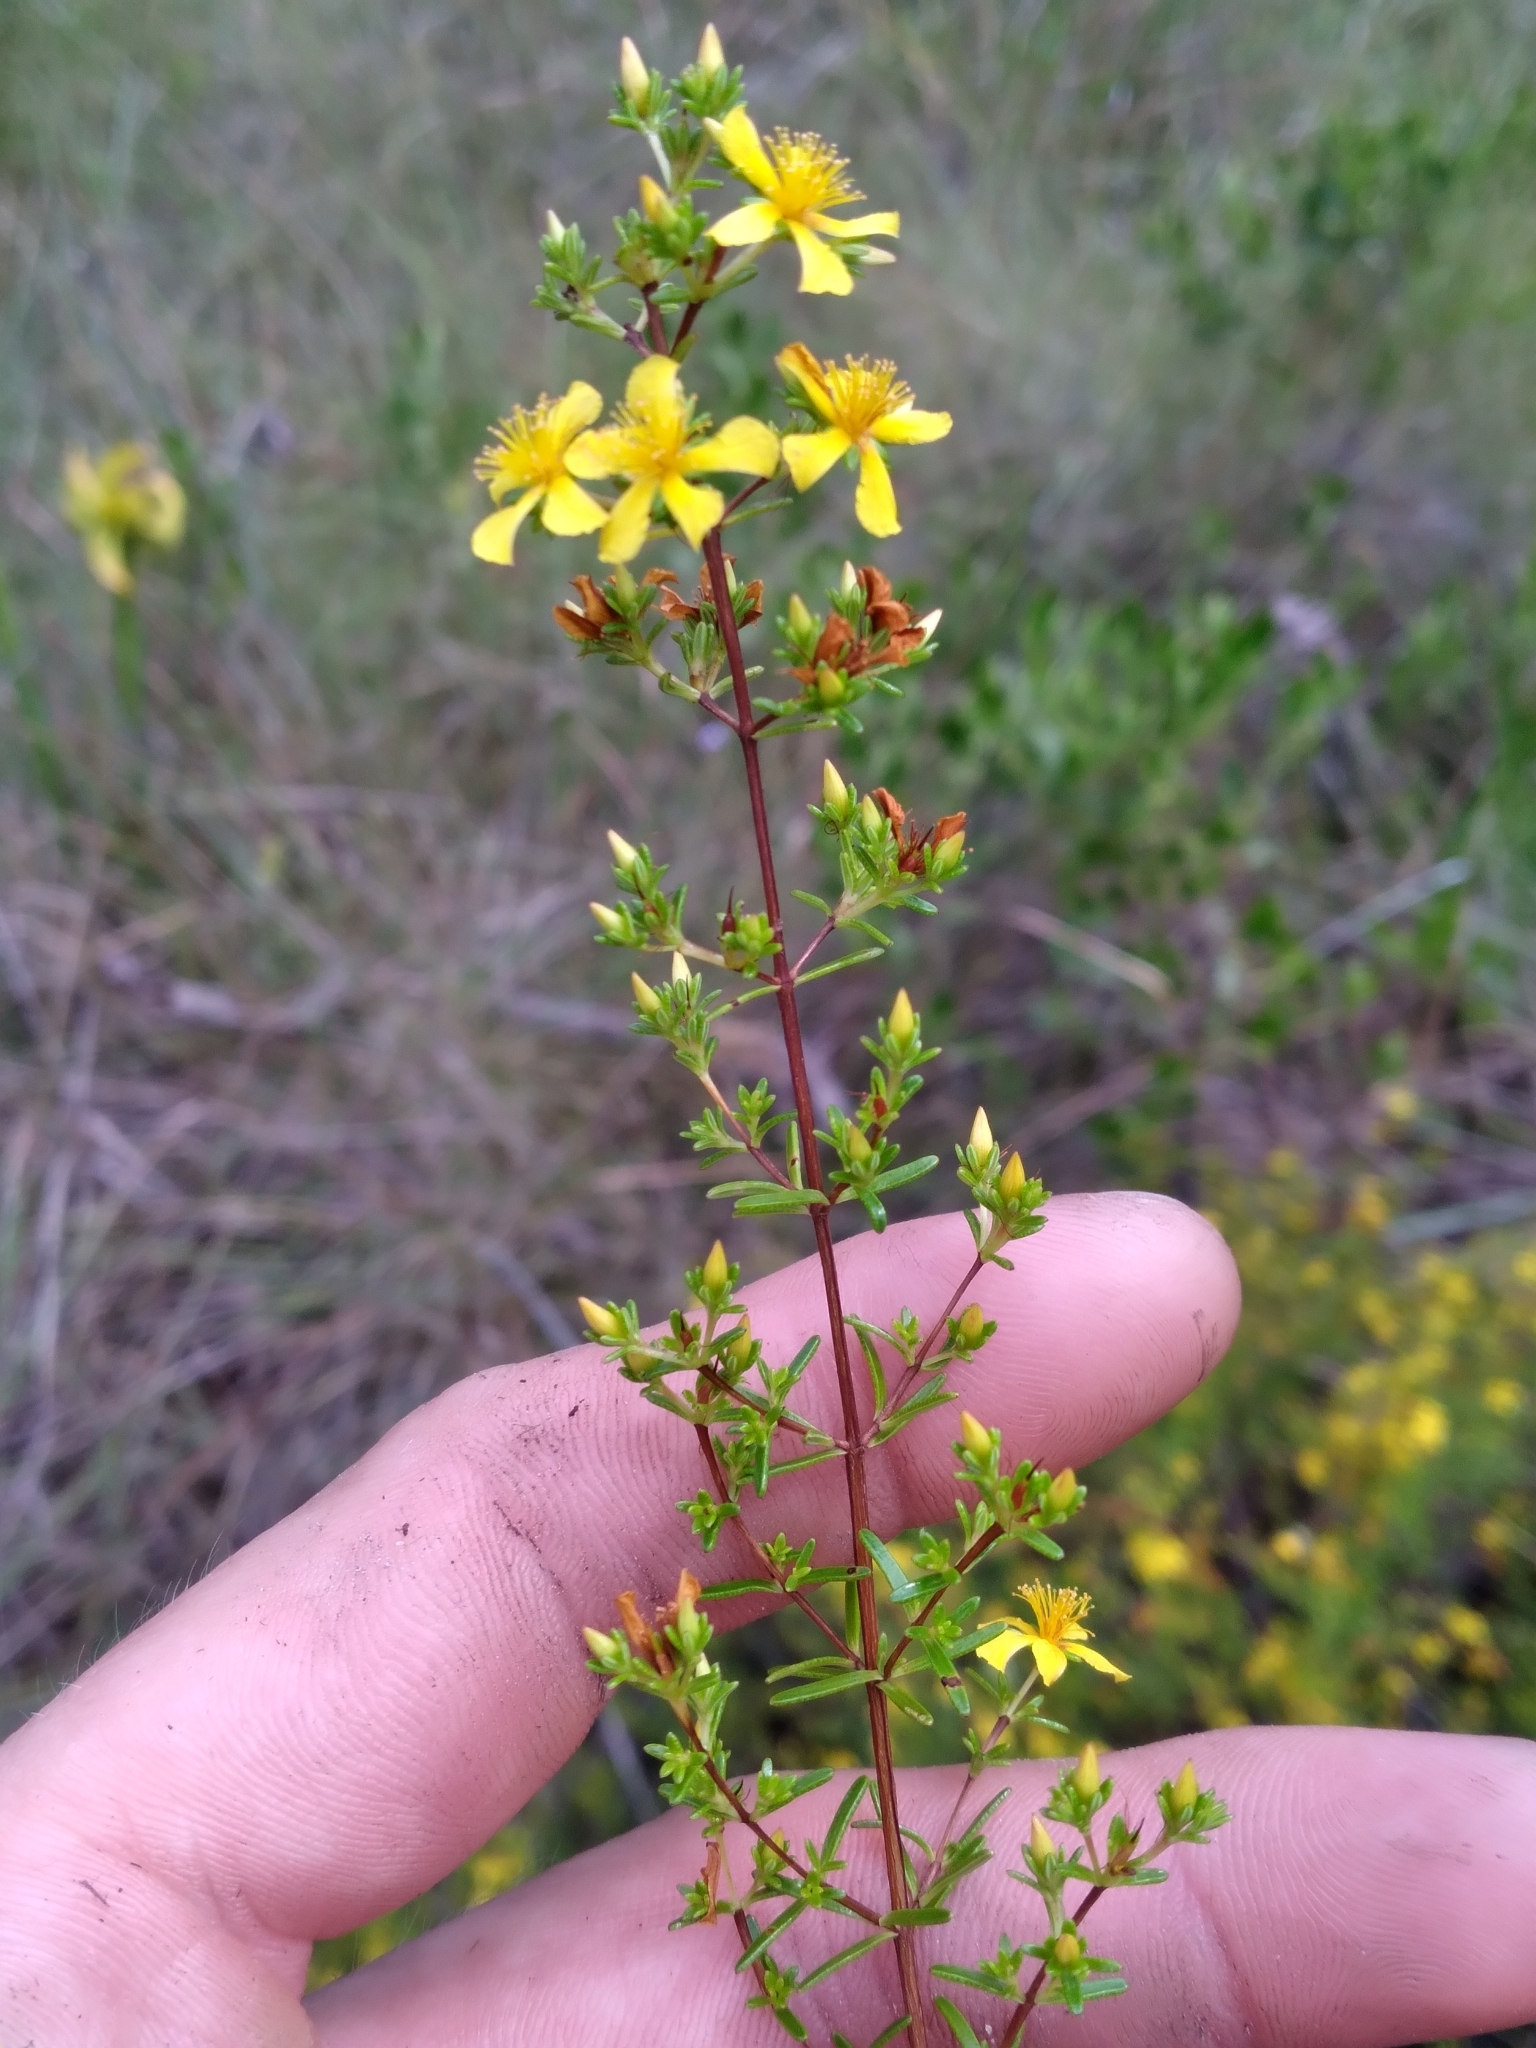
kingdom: Plantae
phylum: Tracheophyta
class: Magnoliopsida
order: Malpighiales
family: Hypericaceae
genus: Hypericum
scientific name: Hypericum brachyphyllum
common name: Coastal plain st. john's-wort
